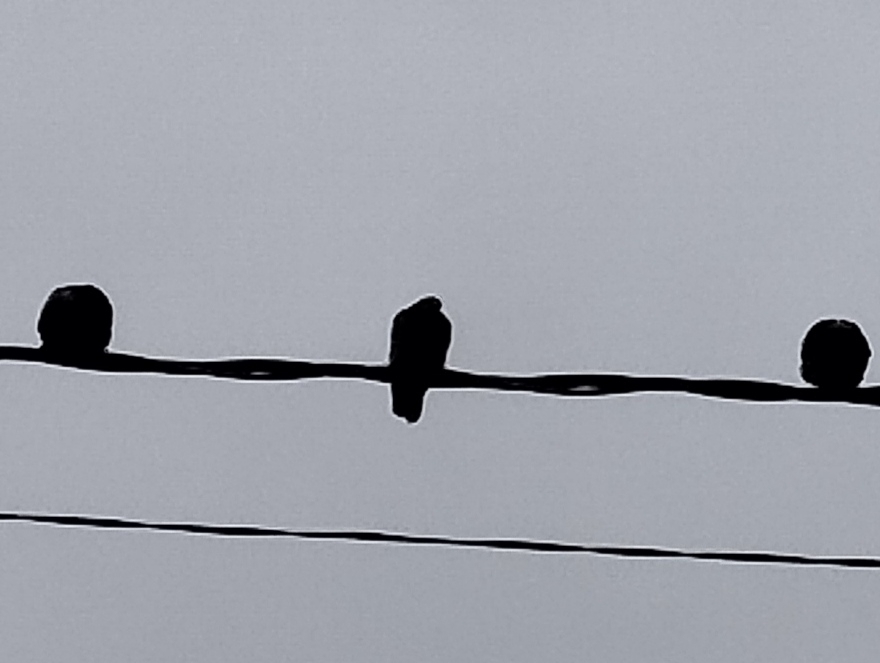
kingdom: Animalia
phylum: Chordata
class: Aves
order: Columbiformes
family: Columbidae
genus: Columba
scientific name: Columba livia
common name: Rock pigeon
